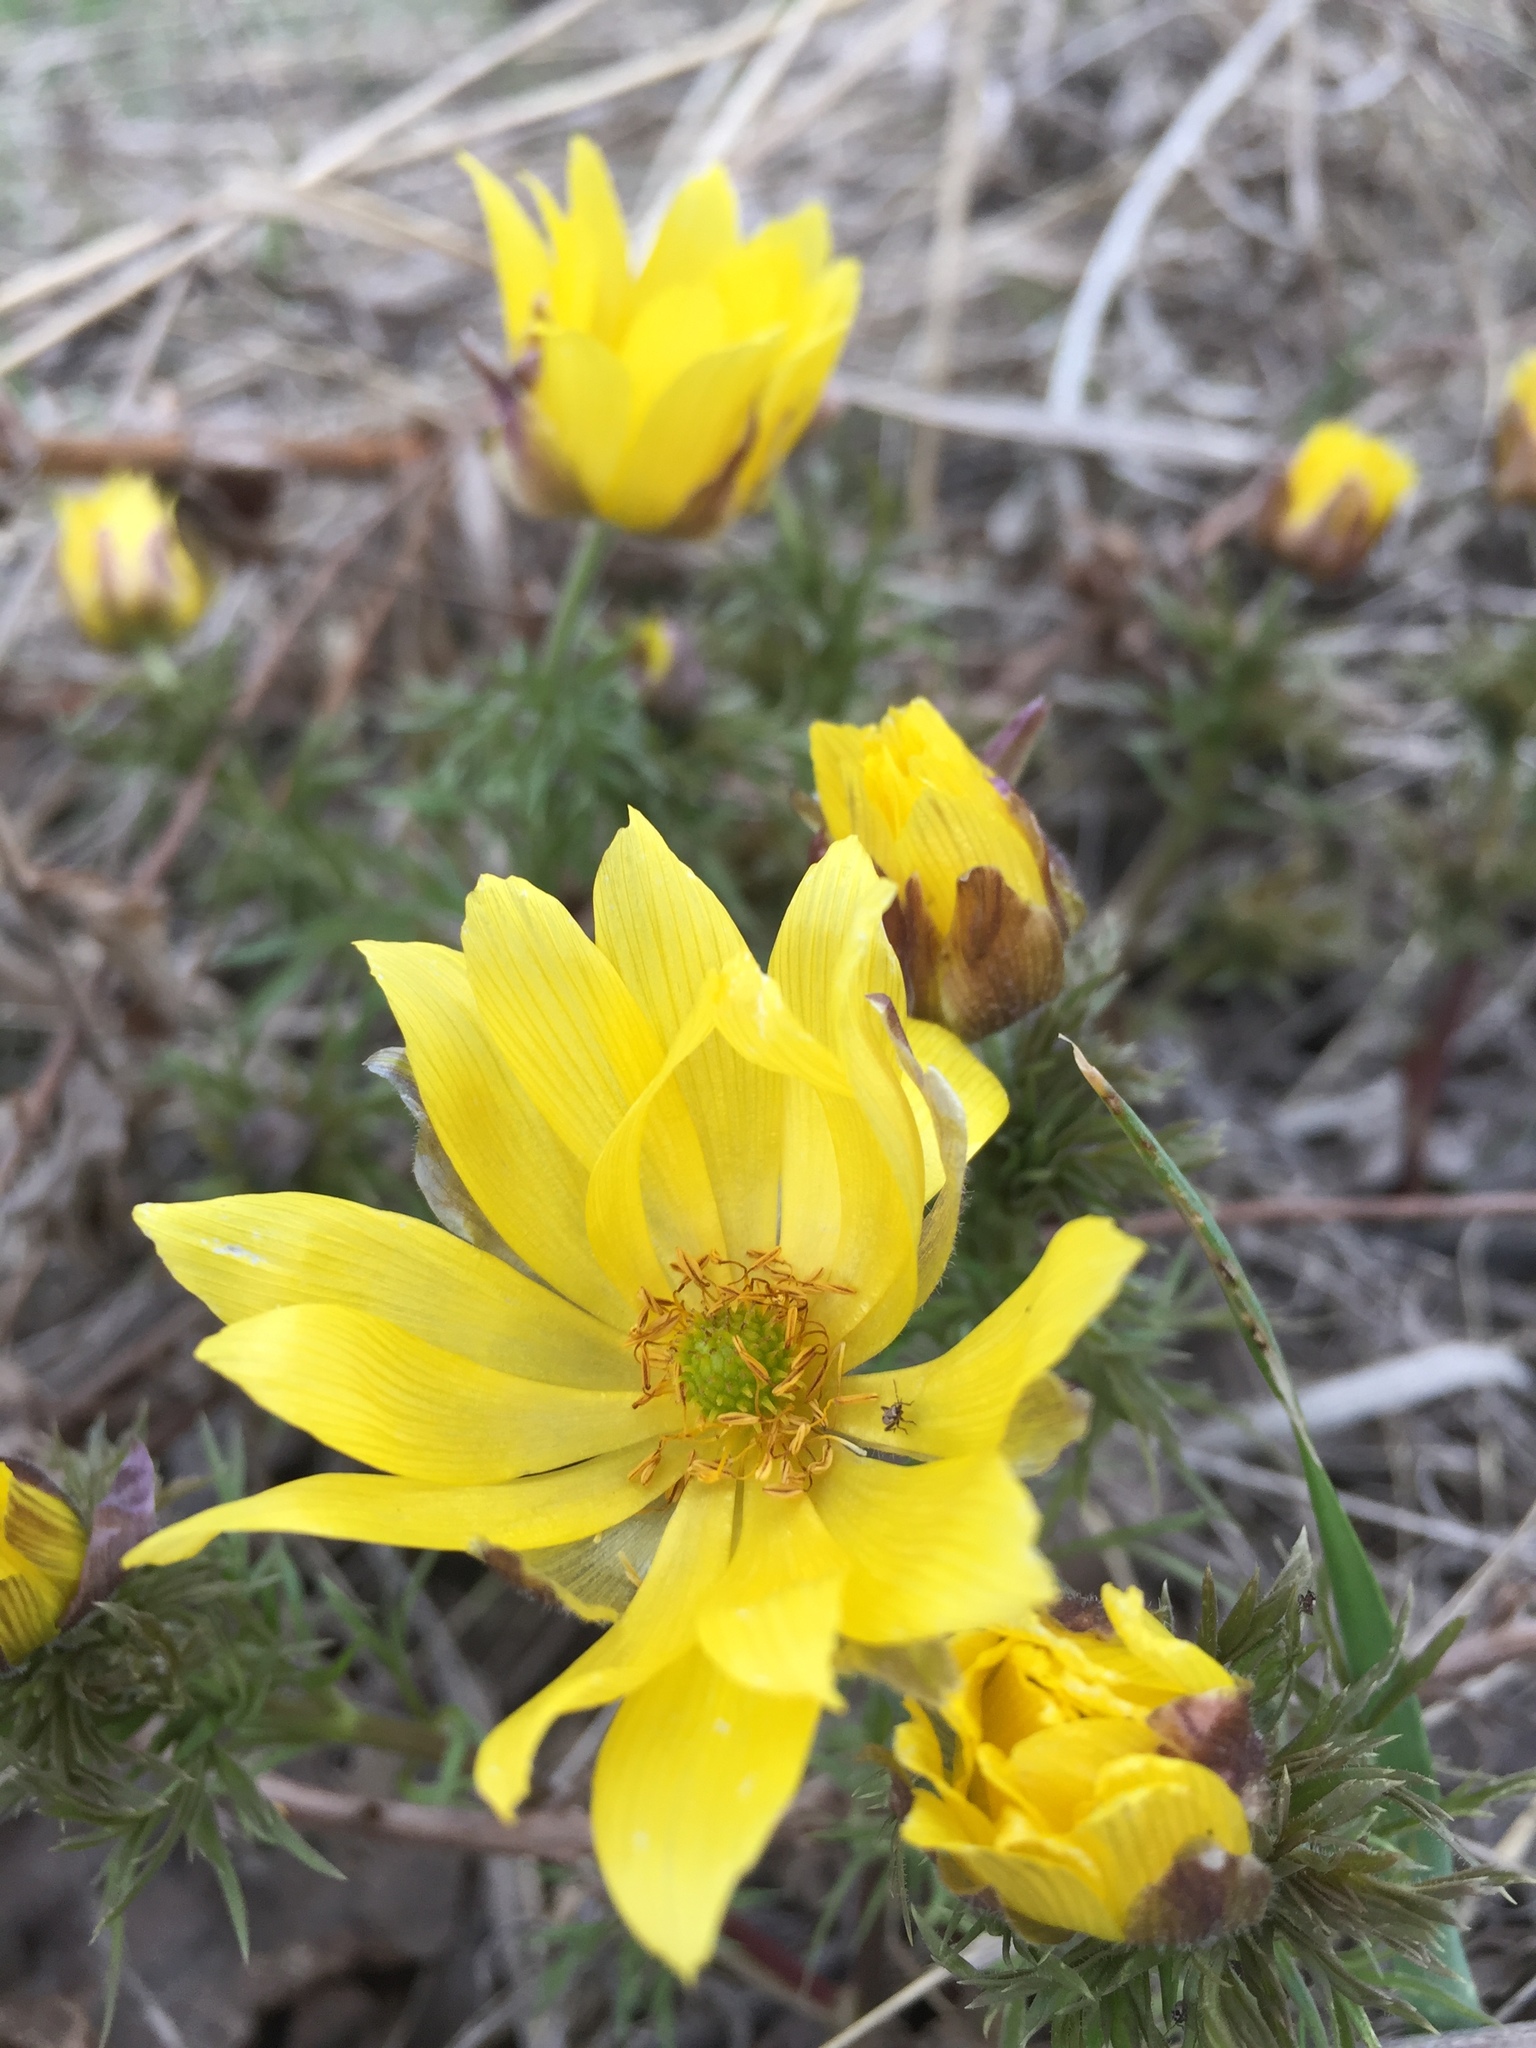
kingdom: Plantae
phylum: Tracheophyta
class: Magnoliopsida
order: Ranunculales
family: Ranunculaceae
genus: Adonis
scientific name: Adonis volgensis
